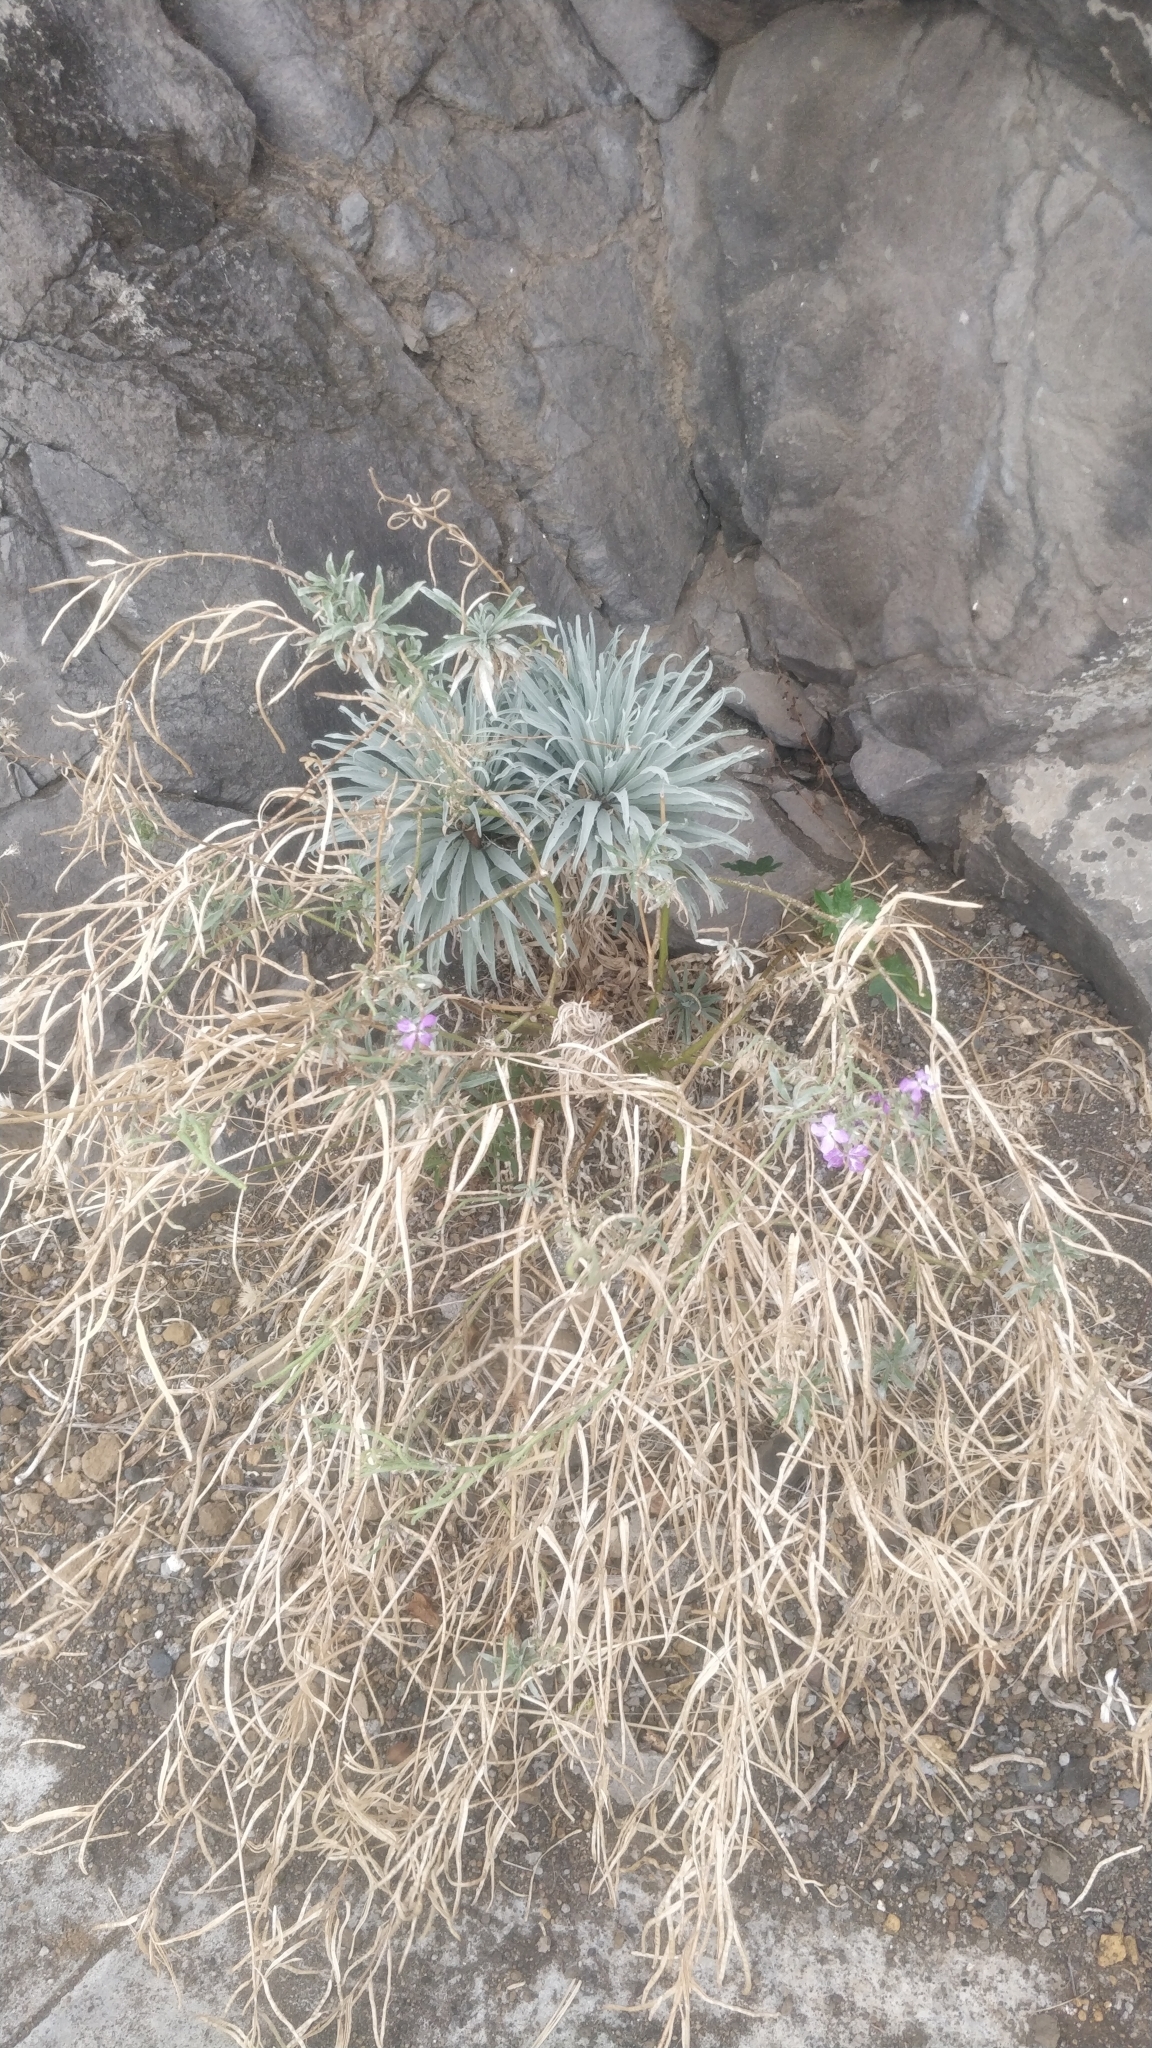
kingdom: Plantae
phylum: Tracheophyta
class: Magnoliopsida
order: Brassicales
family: Brassicaceae
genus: Matthiola
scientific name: Matthiola maderensis
